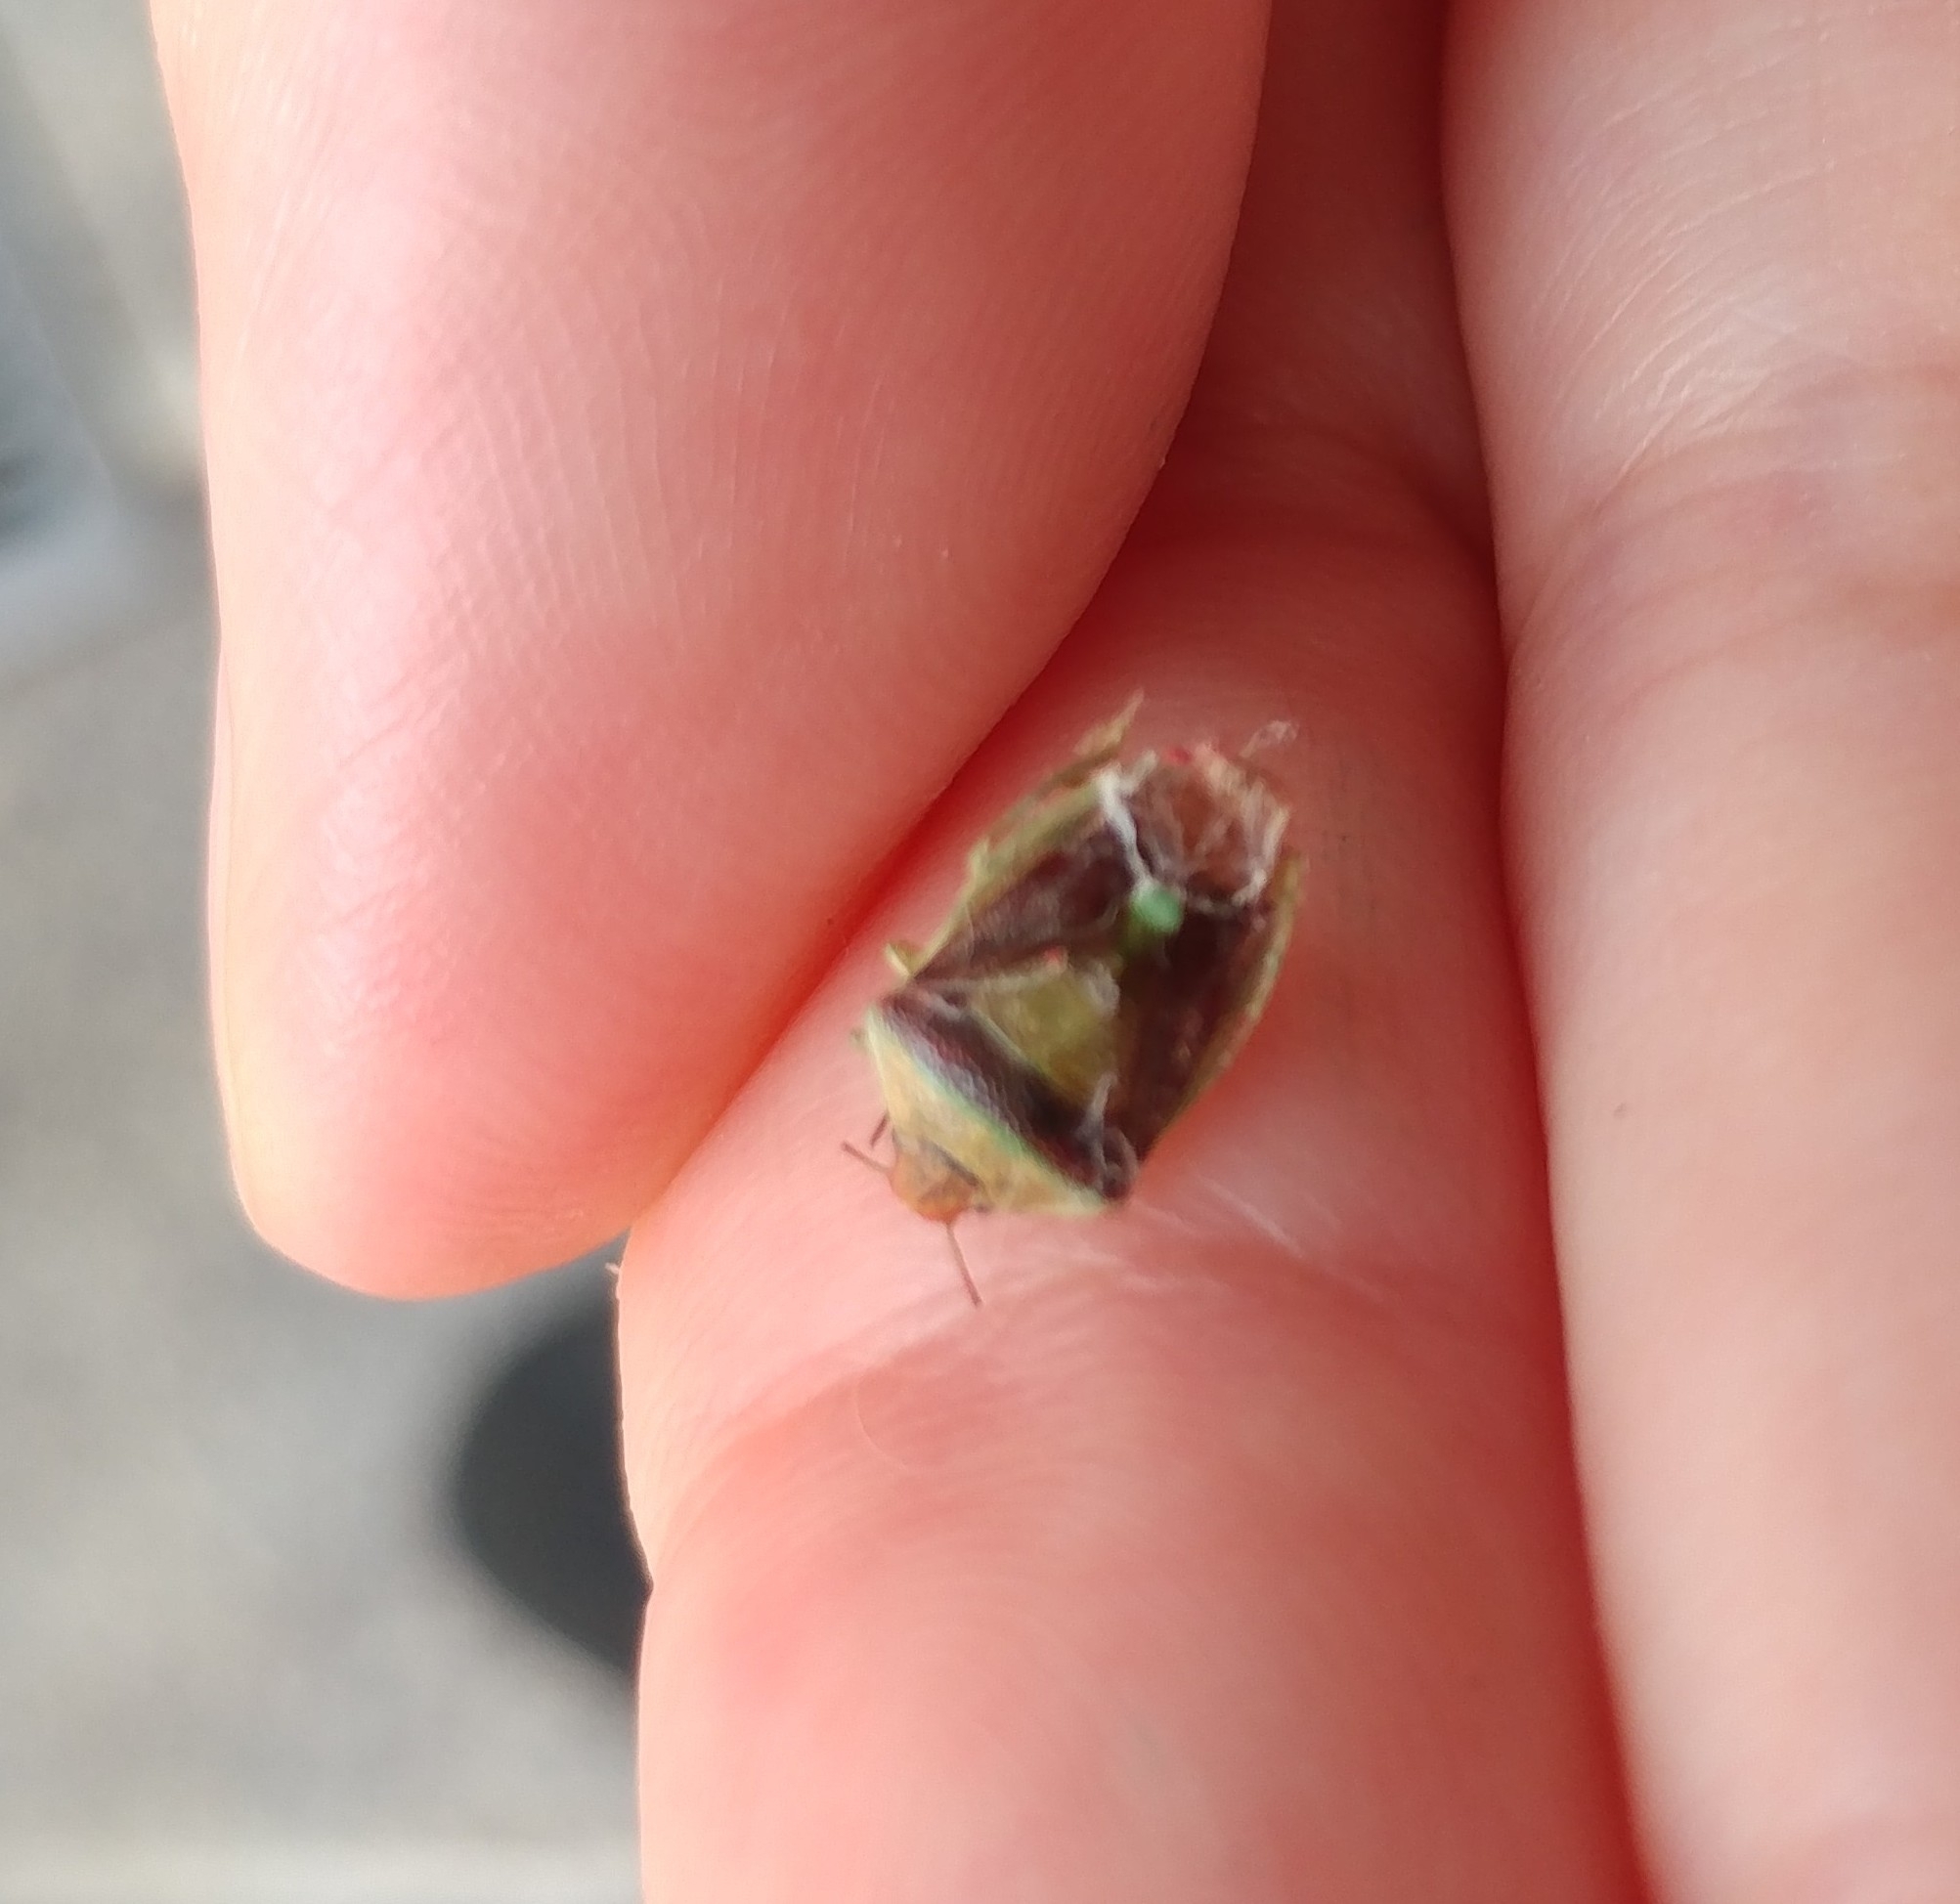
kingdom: Animalia
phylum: Arthropoda
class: Insecta
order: Hemiptera
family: Pentatomidae
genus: Banasa
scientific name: Banasa dimidiata
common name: Green burgundy stink bug
